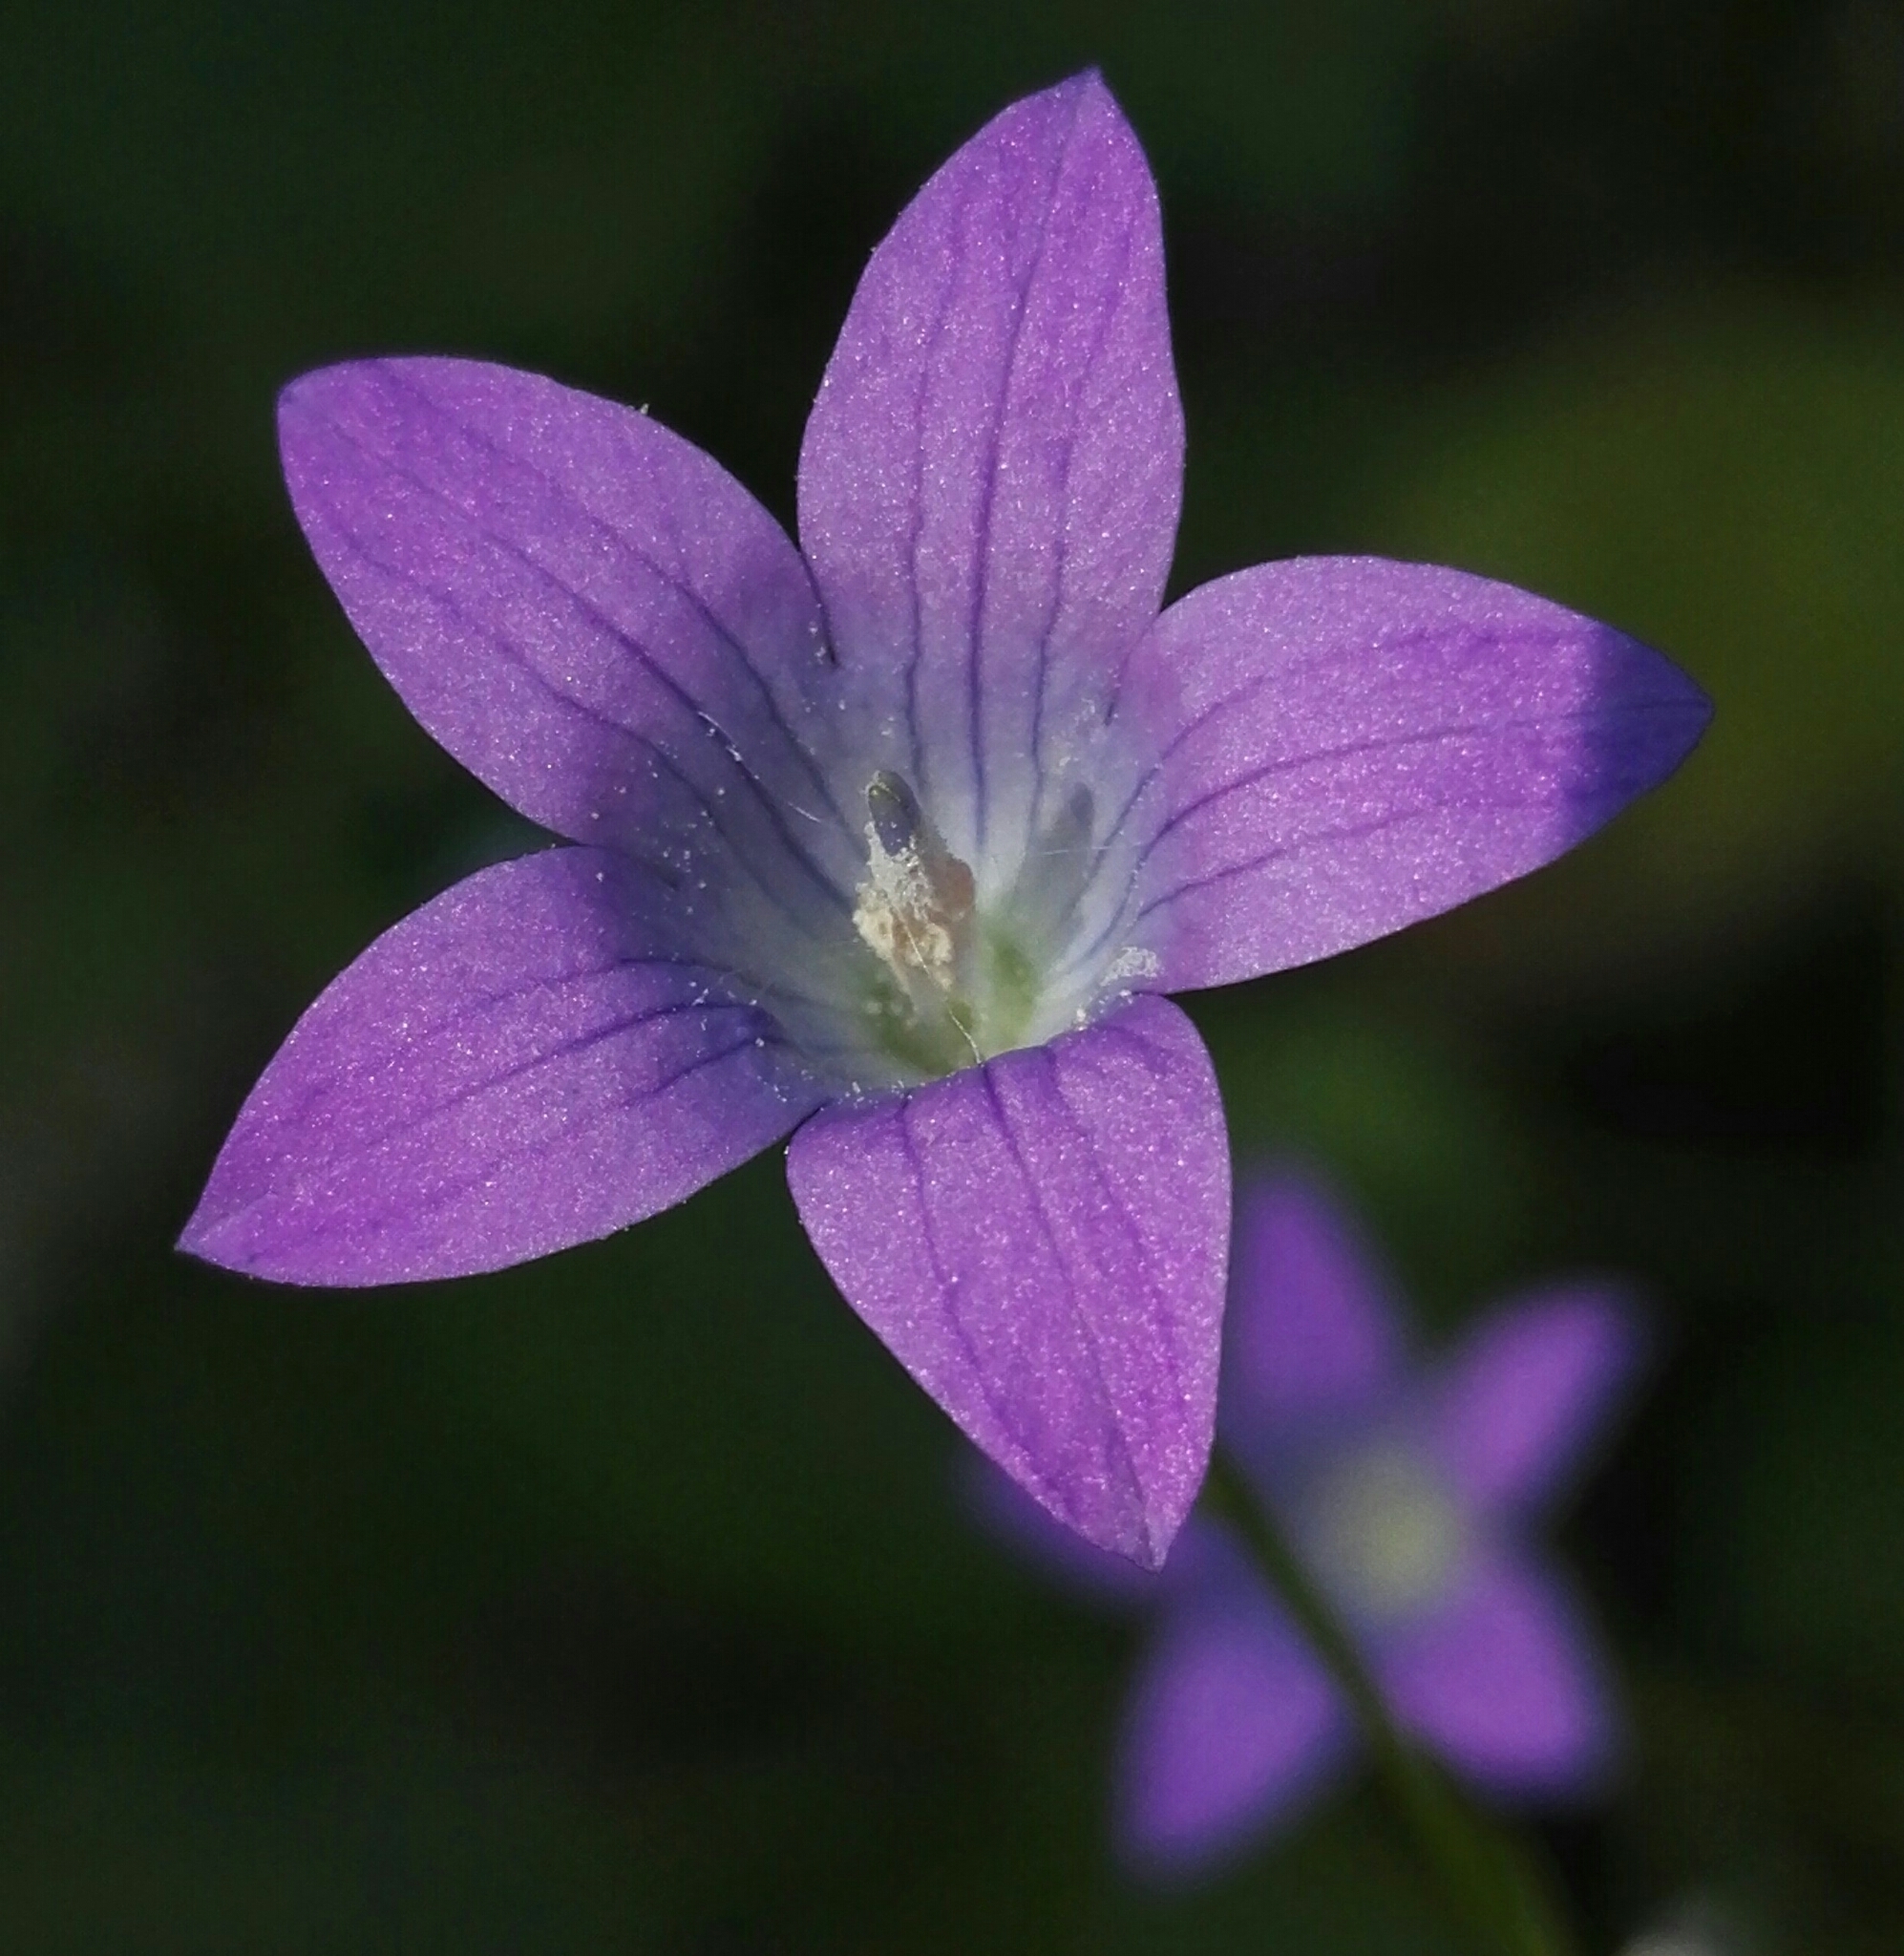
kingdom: Plantae
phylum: Tracheophyta
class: Magnoliopsida
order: Asterales
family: Campanulaceae
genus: Campanula
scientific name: Campanula patula
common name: Spreading bellflower
